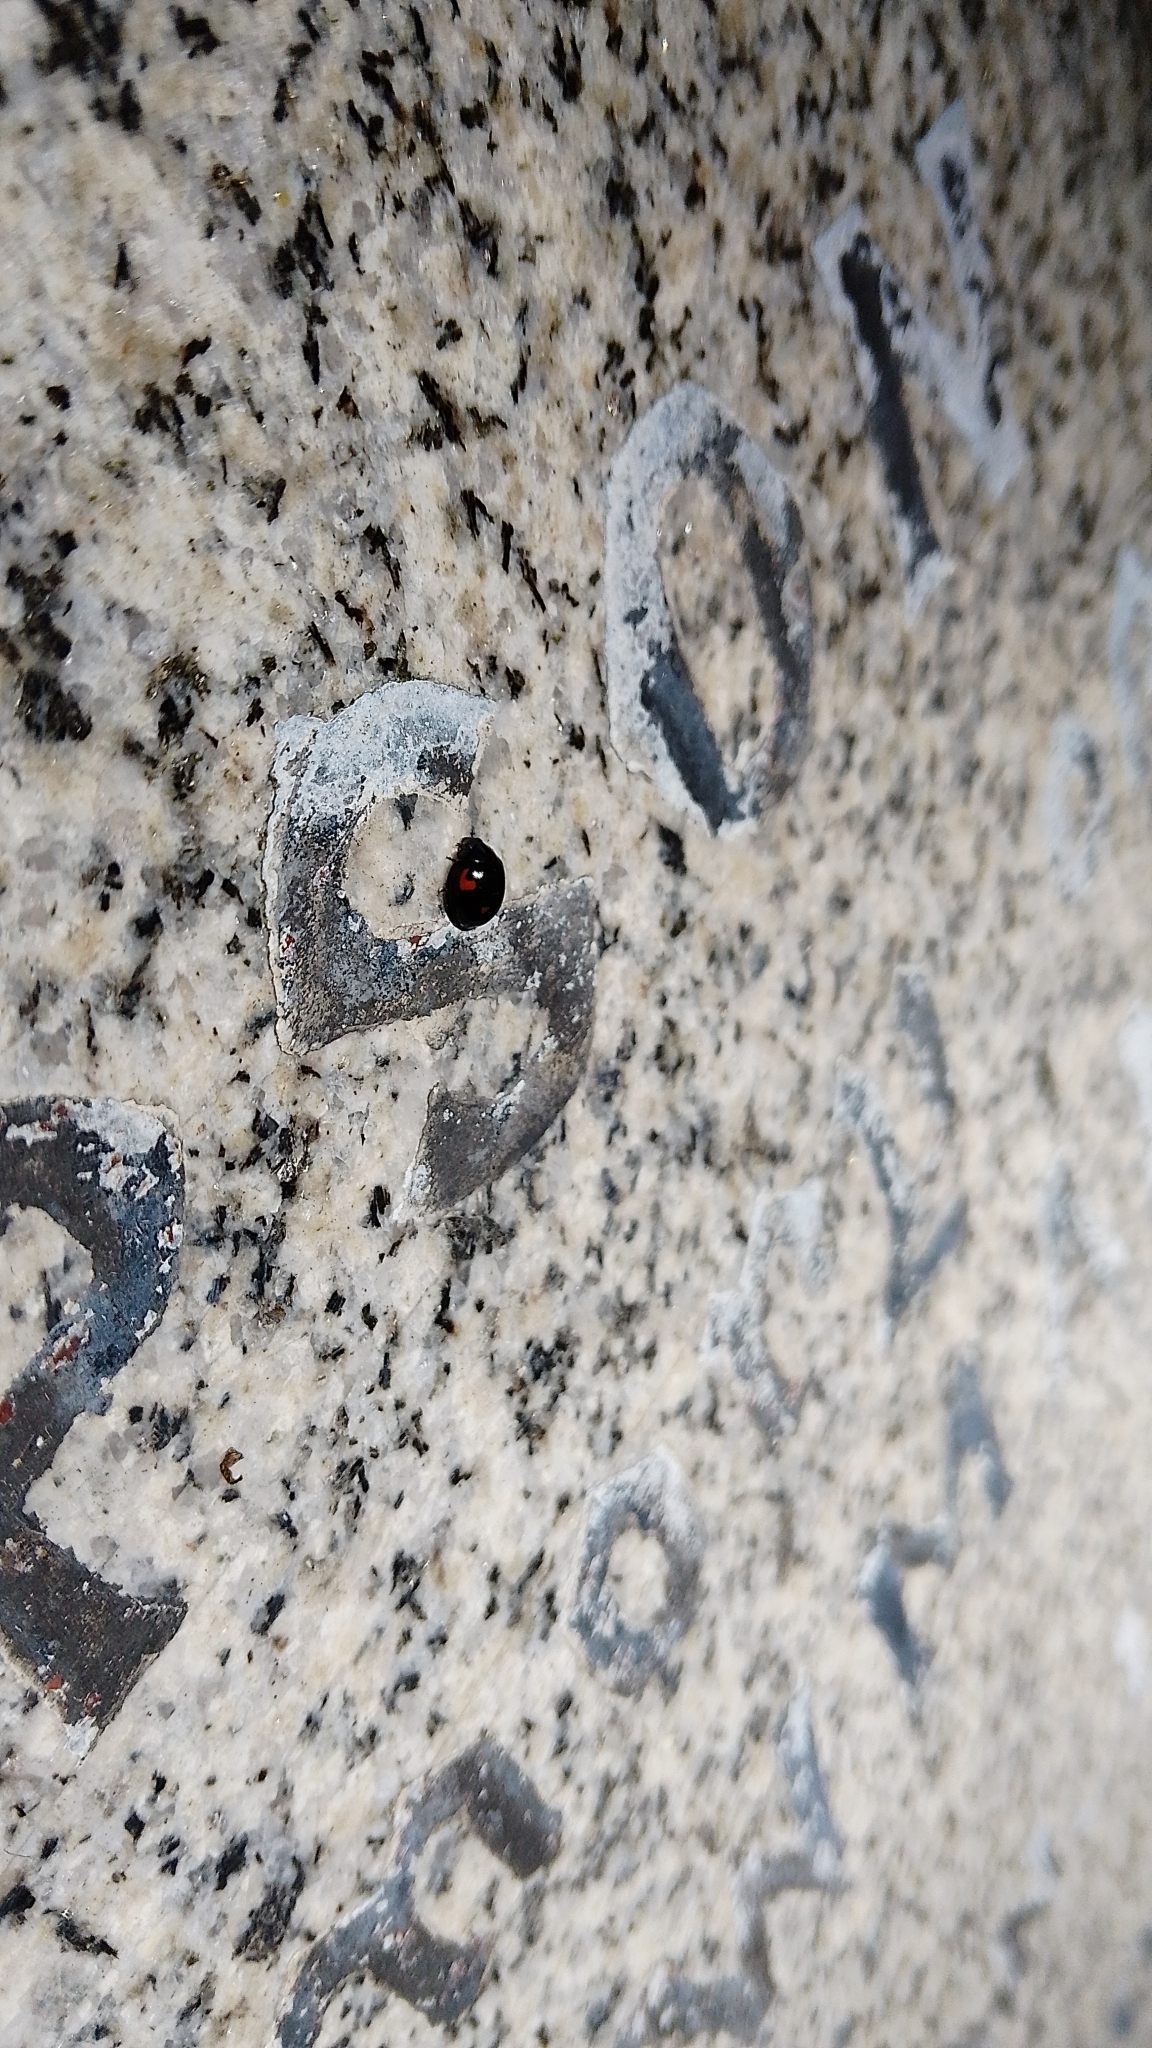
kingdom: Animalia
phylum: Arthropoda
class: Insecta
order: Coleoptera
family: Coccinellidae
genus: Brumus
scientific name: Brumus quadripustulatus
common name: Ladybird beetle
